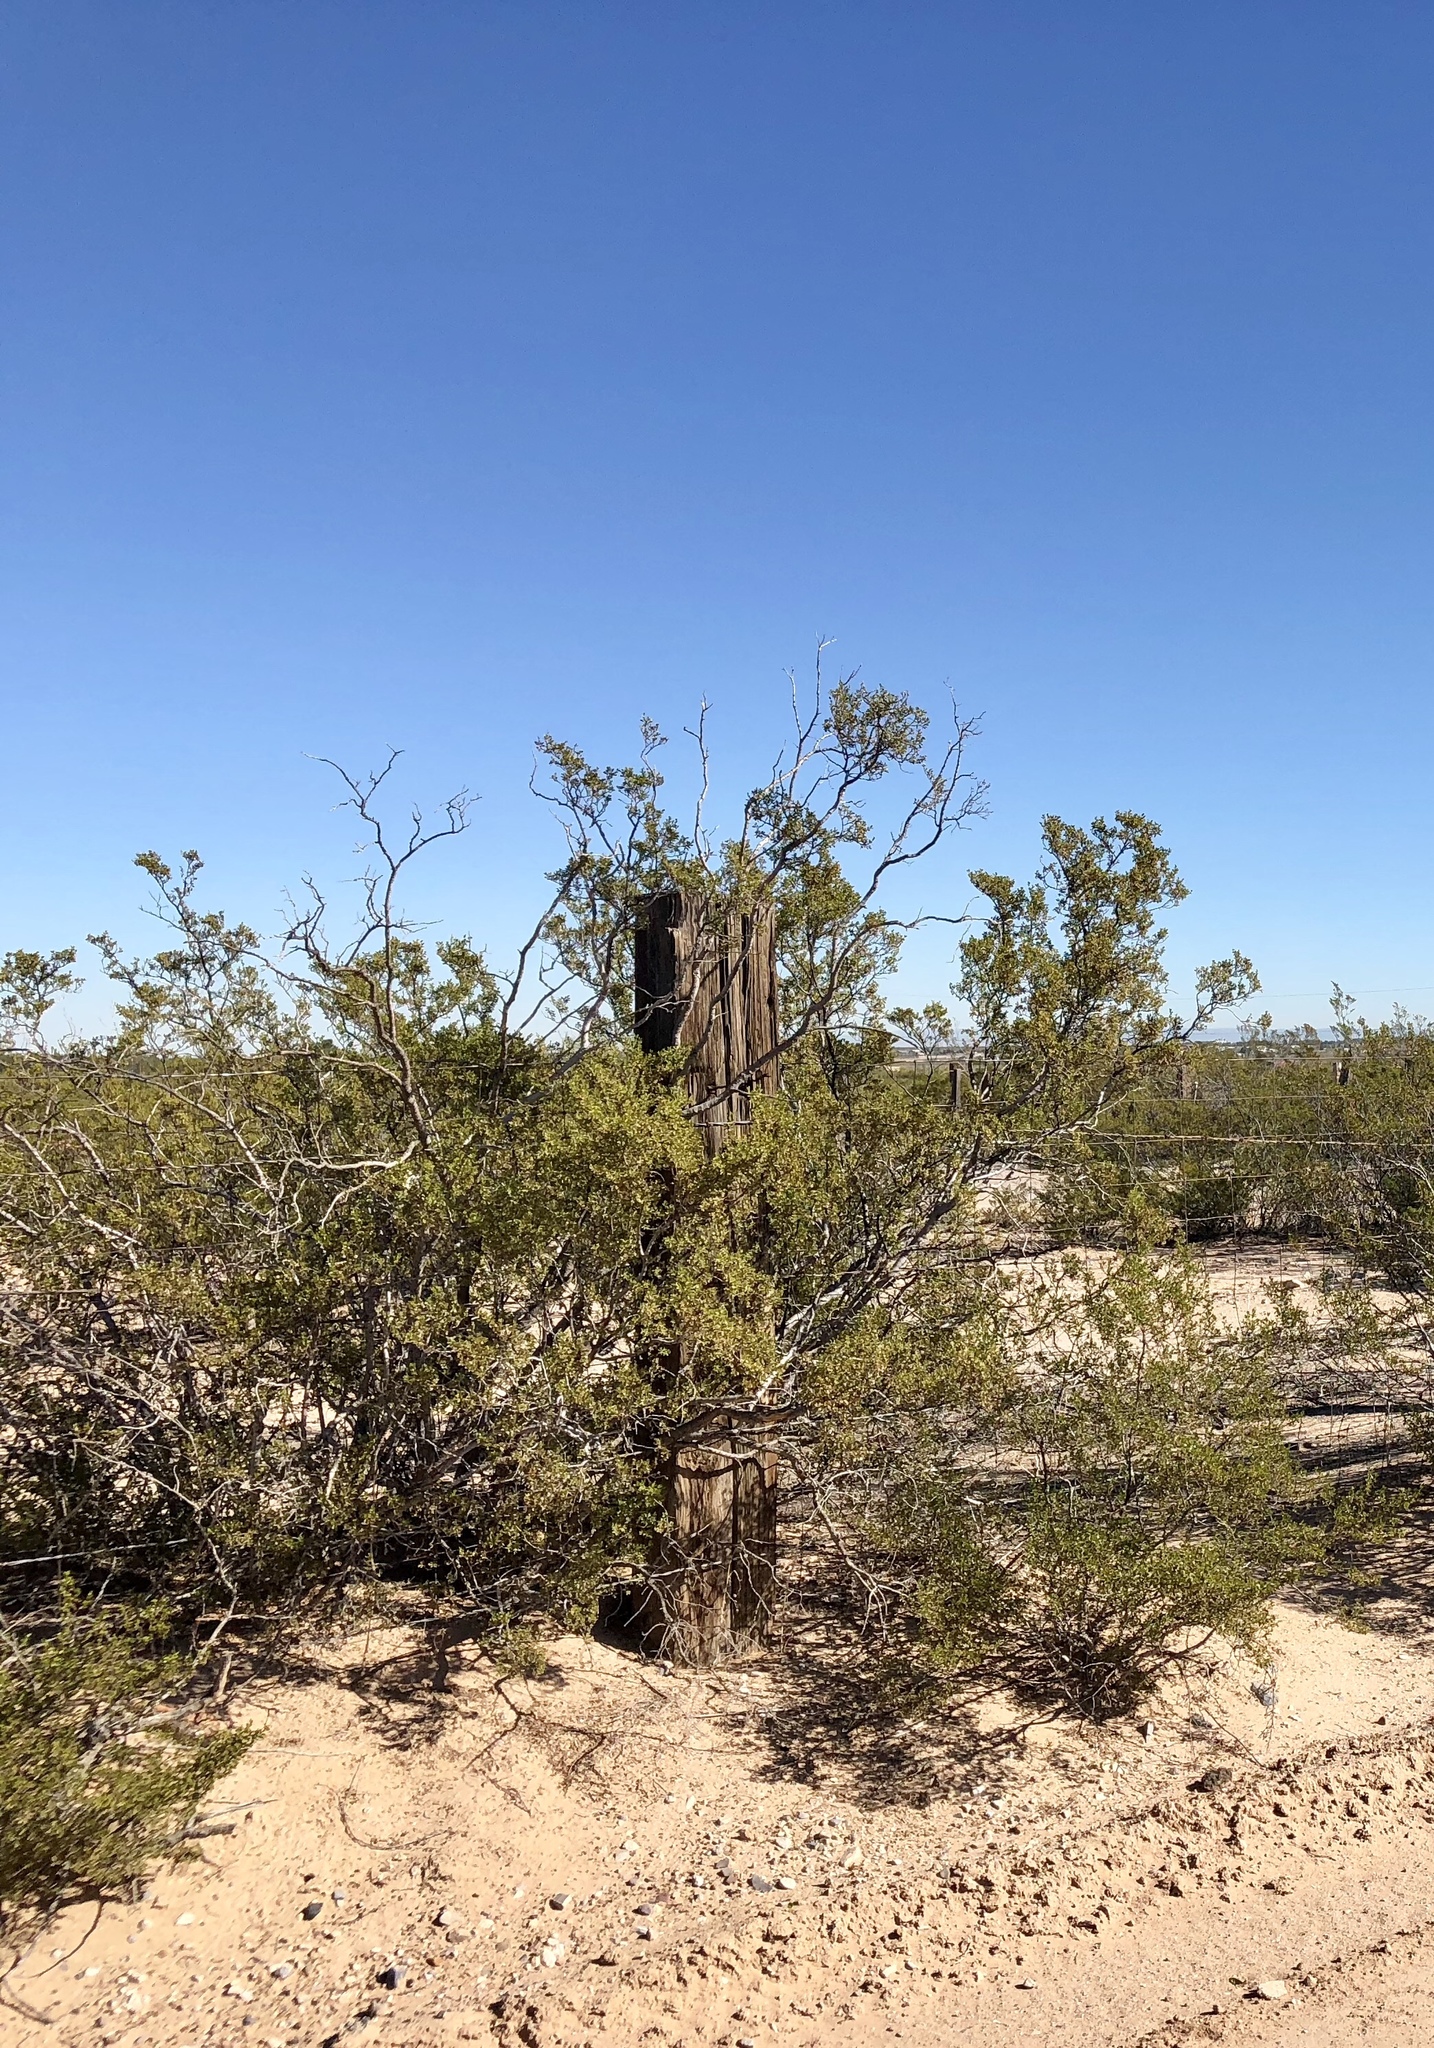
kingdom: Plantae
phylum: Tracheophyta
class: Magnoliopsida
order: Zygophyllales
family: Zygophyllaceae
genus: Larrea
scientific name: Larrea tridentata
